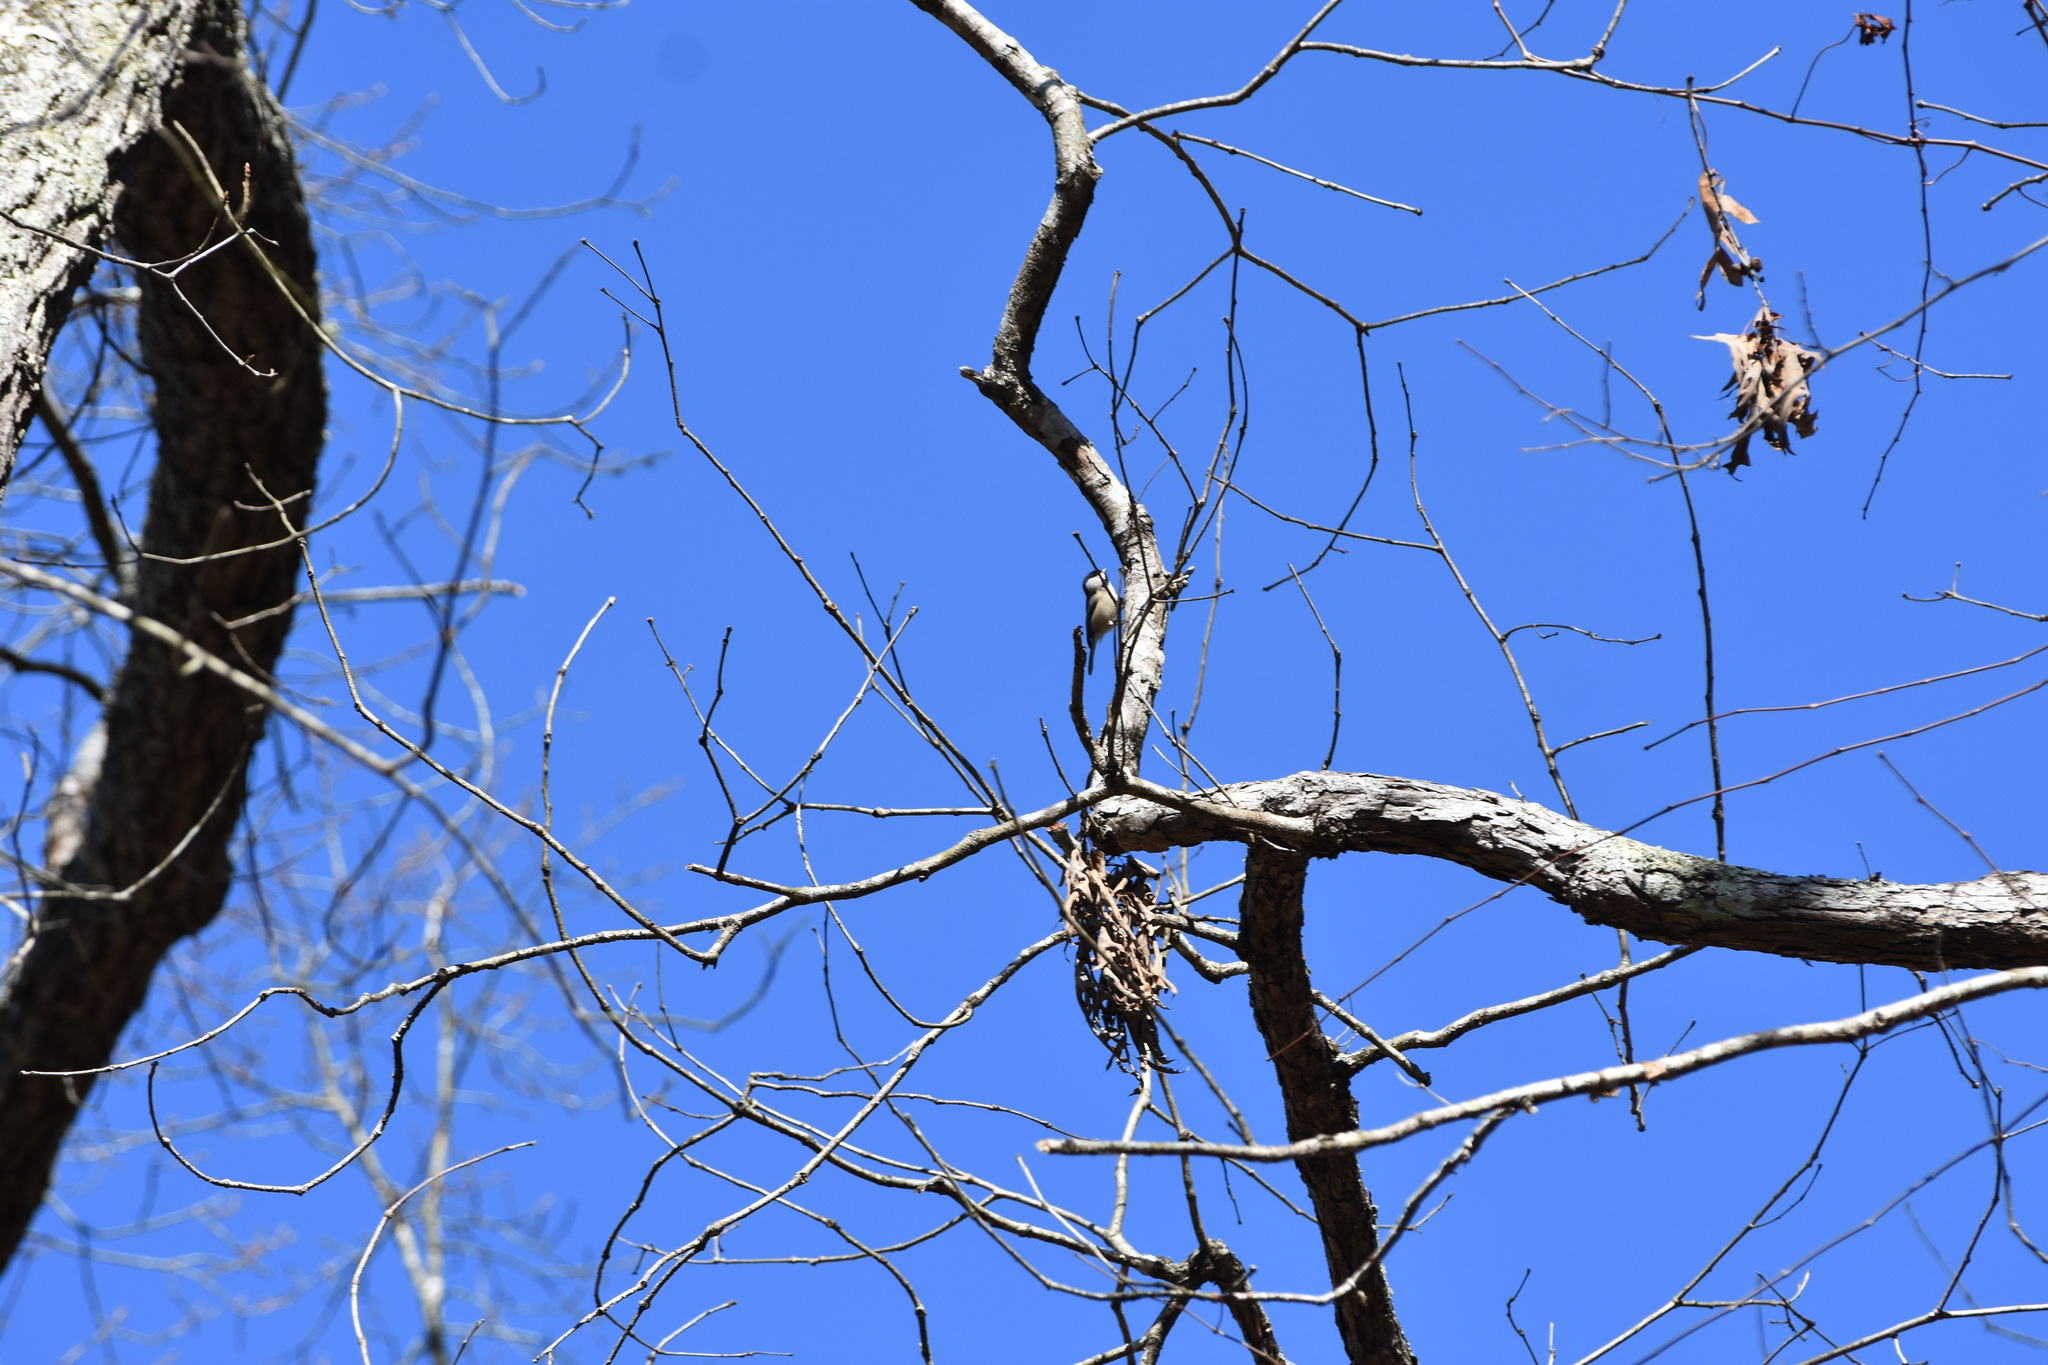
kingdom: Animalia
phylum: Chordata
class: Aves
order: Passeriformes
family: Paridae
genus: Poecile
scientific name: Poecile carolinensis
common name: Carolina chickadee
